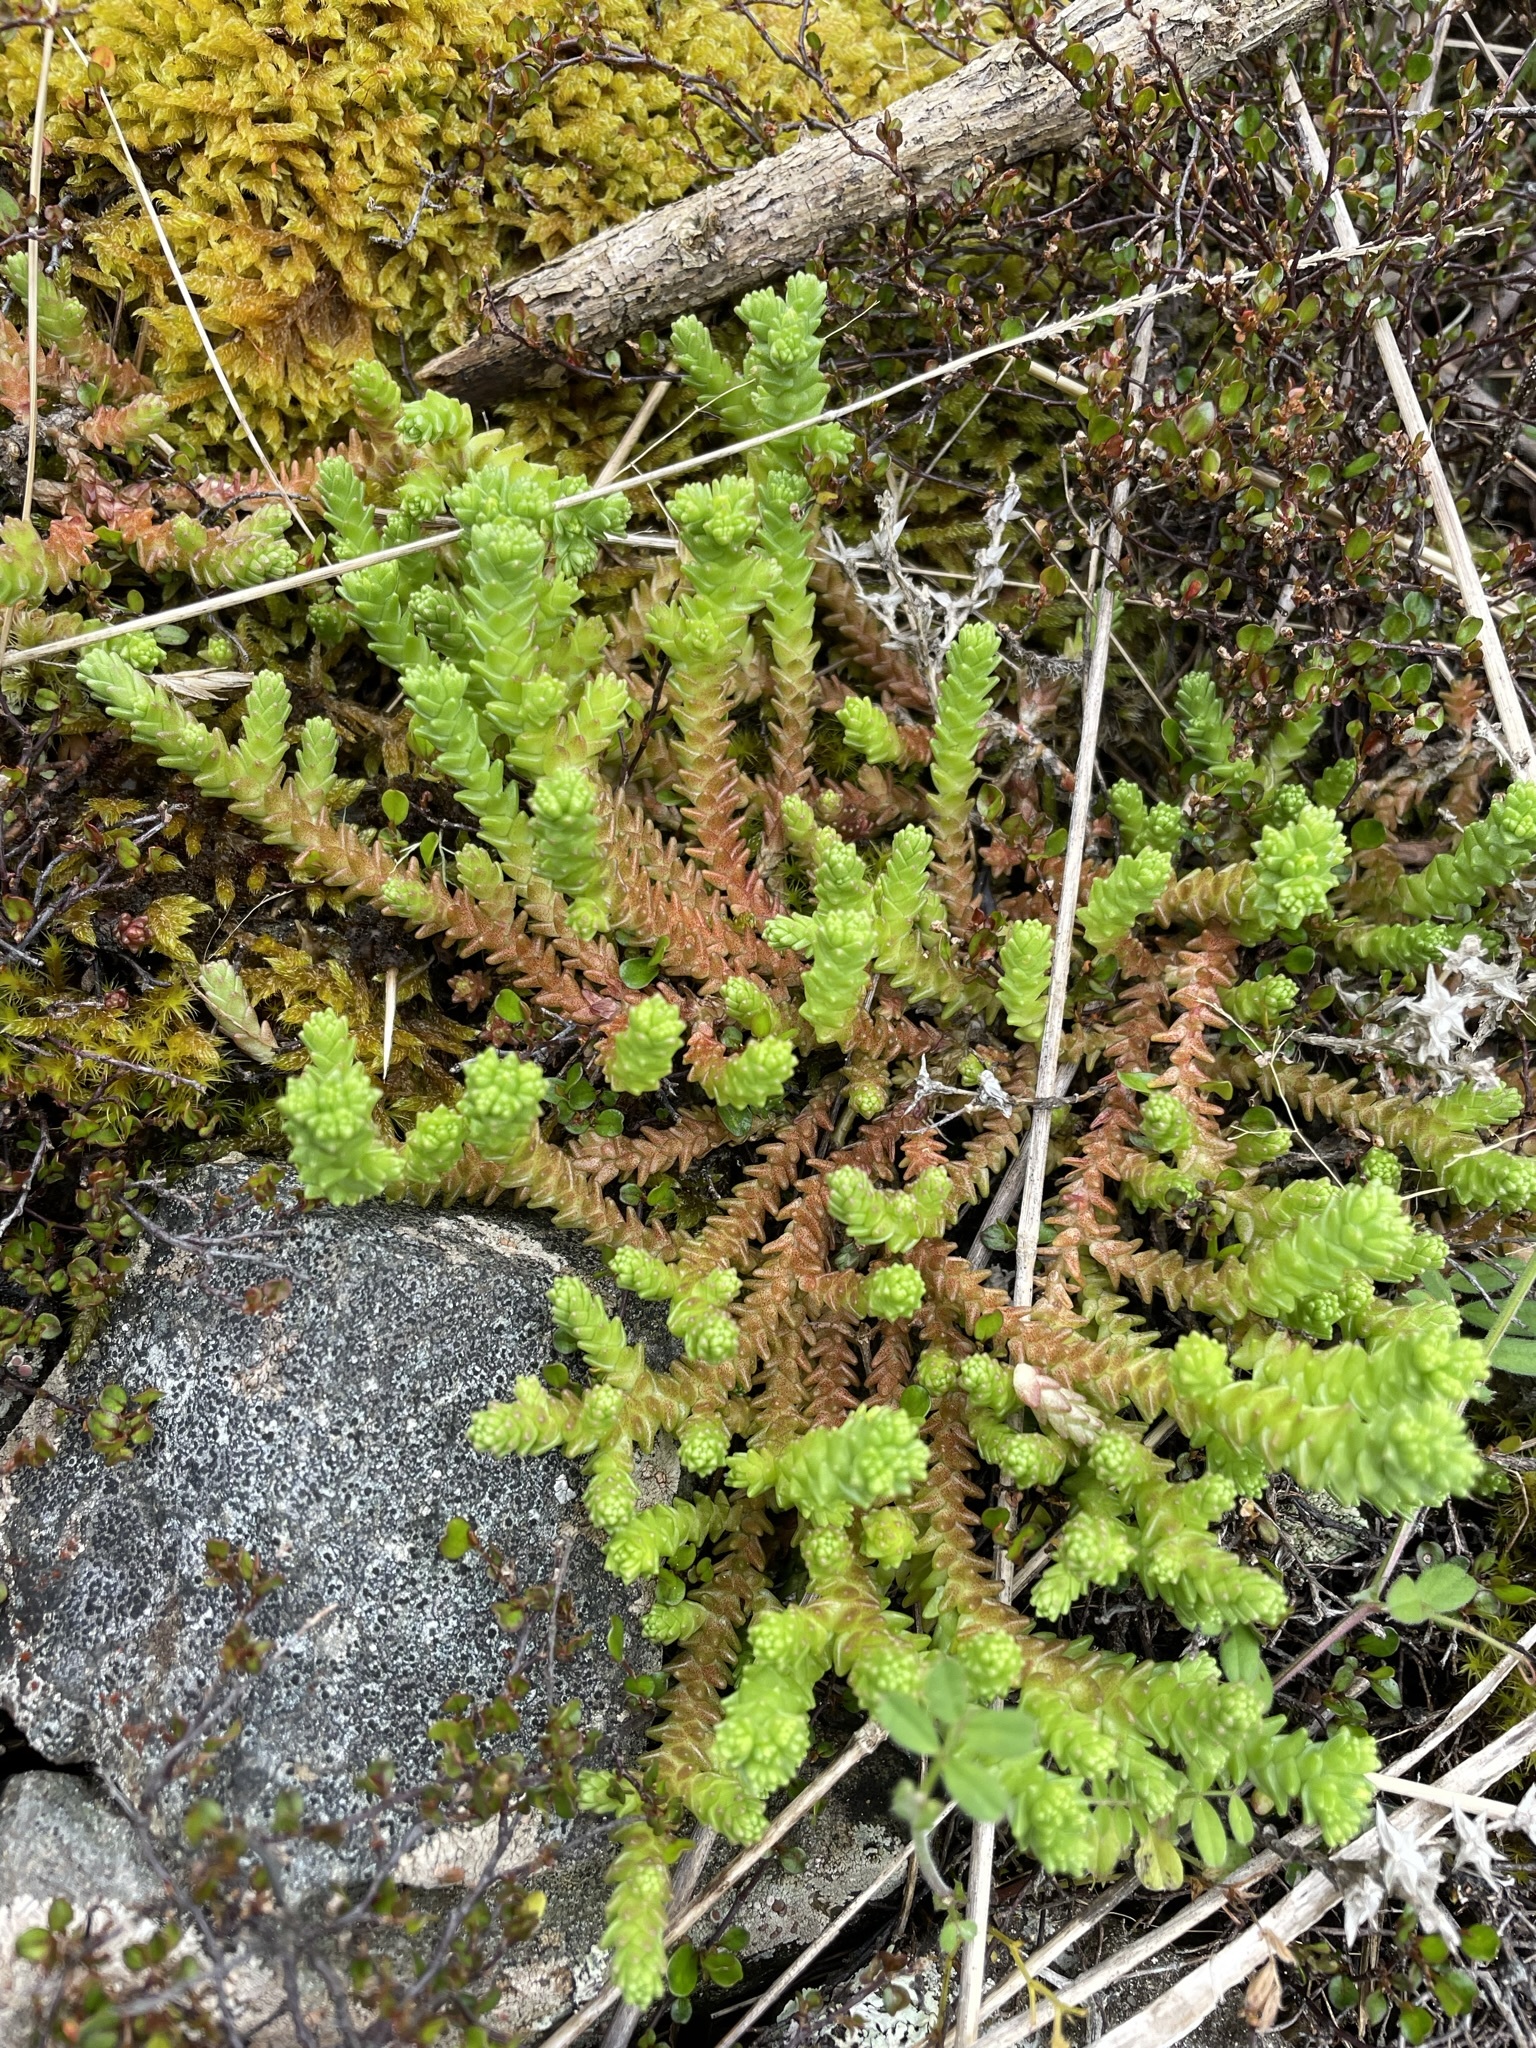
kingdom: Plantae
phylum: Tracheophyta
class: Magnoliopsida
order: Saxifragales
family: Crassulaceae
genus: Sedum
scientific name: Sedum acre
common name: Biting stonecrop
